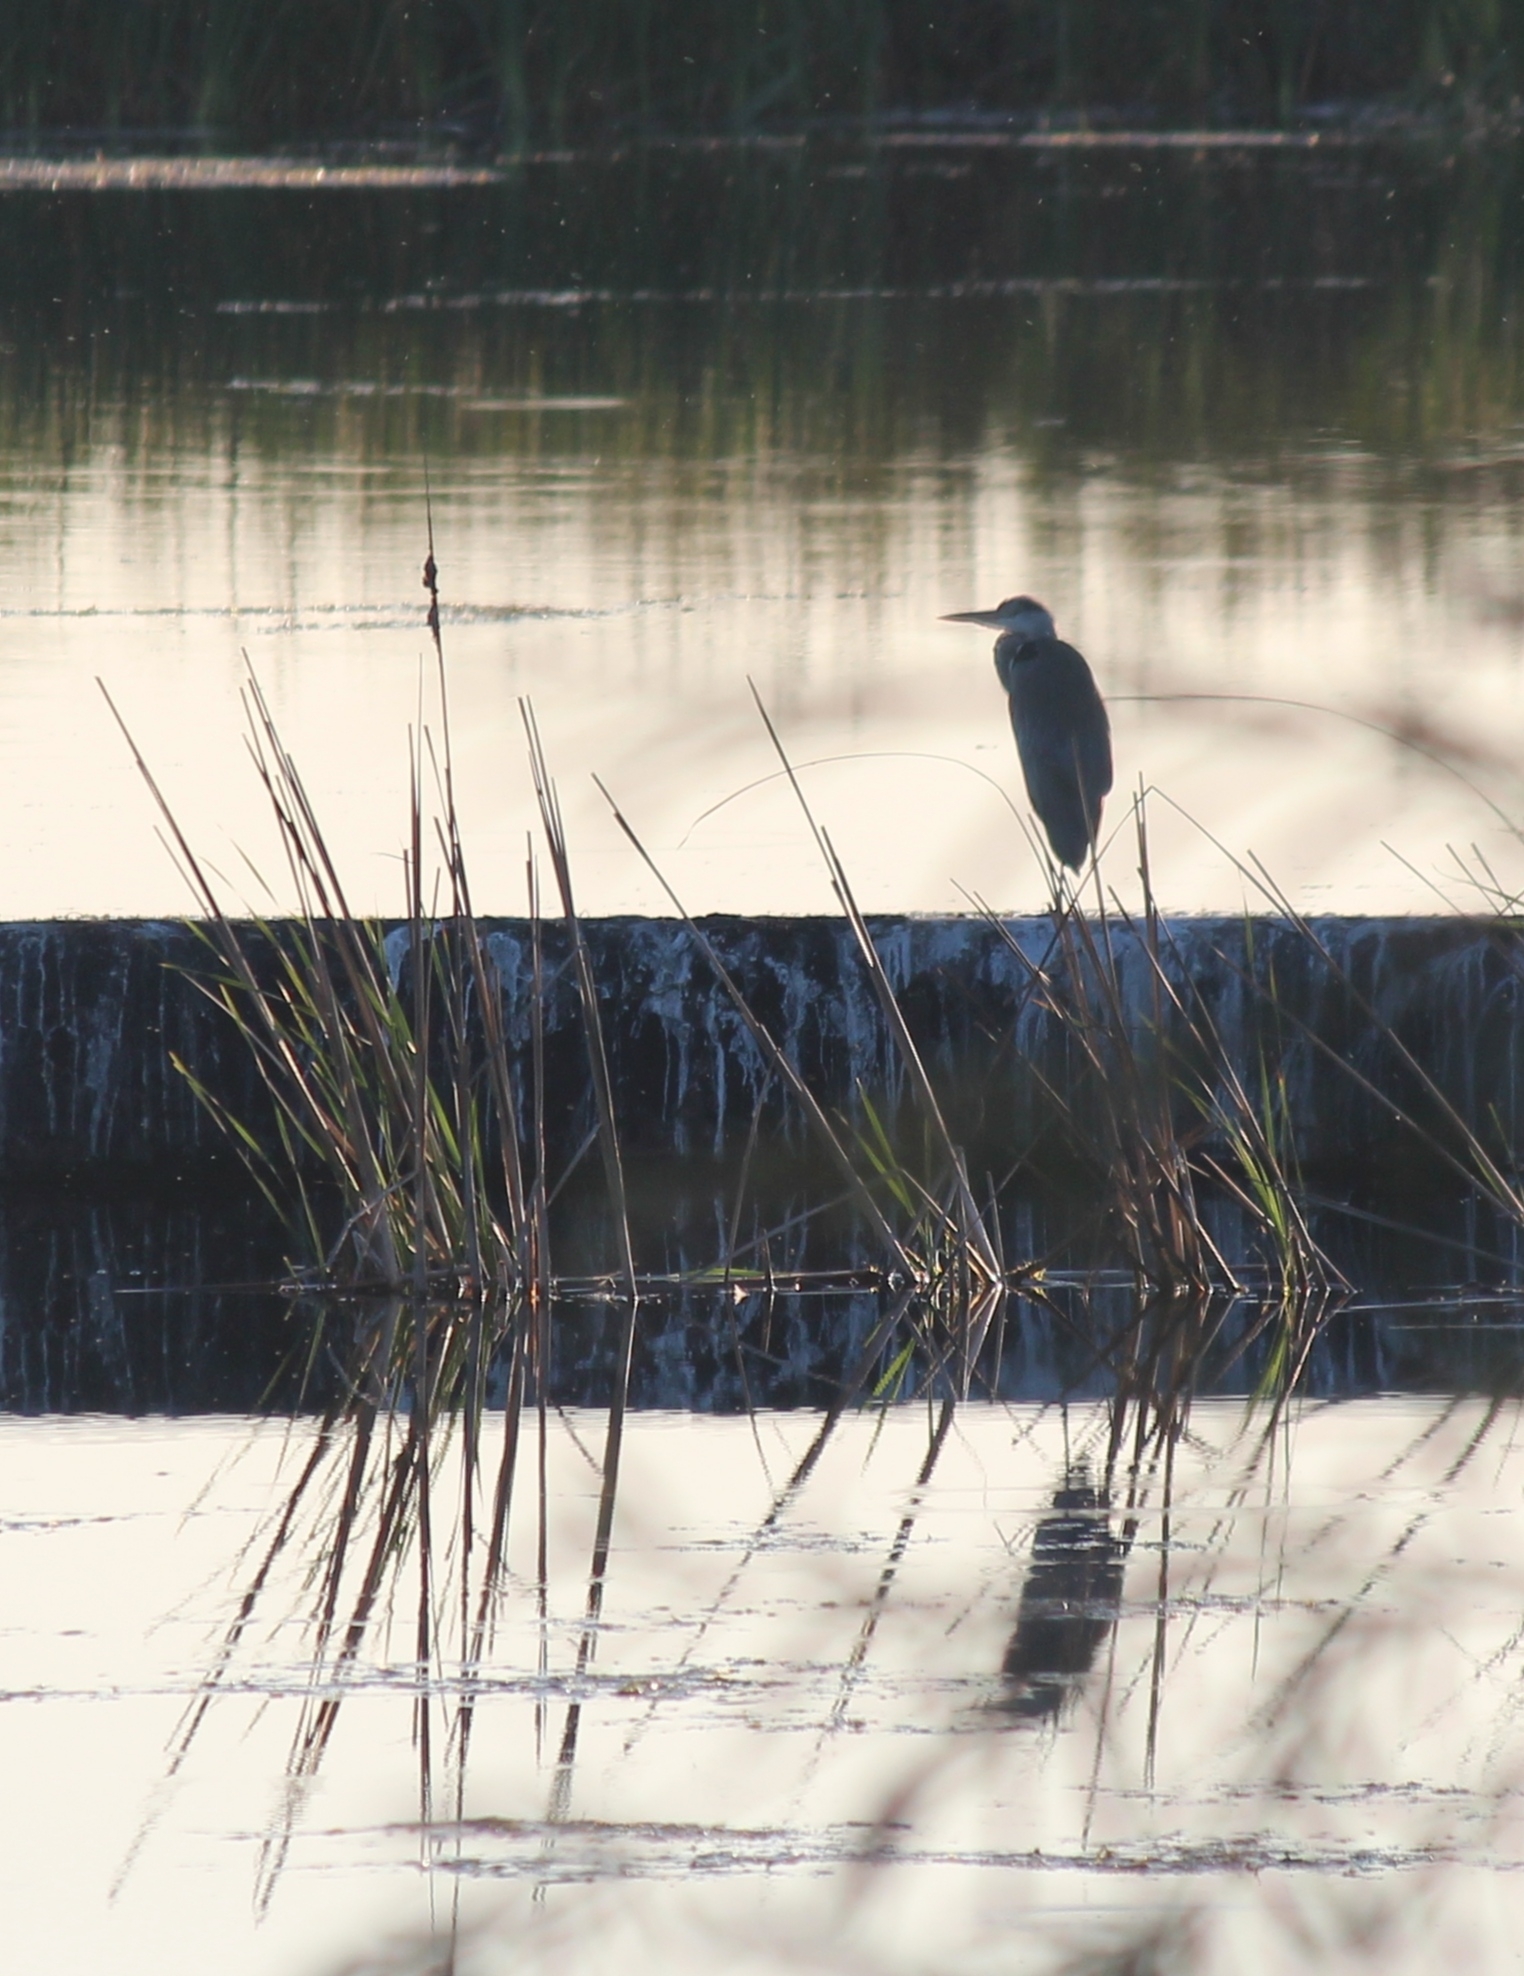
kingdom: Animalia
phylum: Chordata
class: Aves
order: Pelecaniformes
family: Ardeidae
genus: Ardea
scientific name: Ardea cinerea
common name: Grey heron
